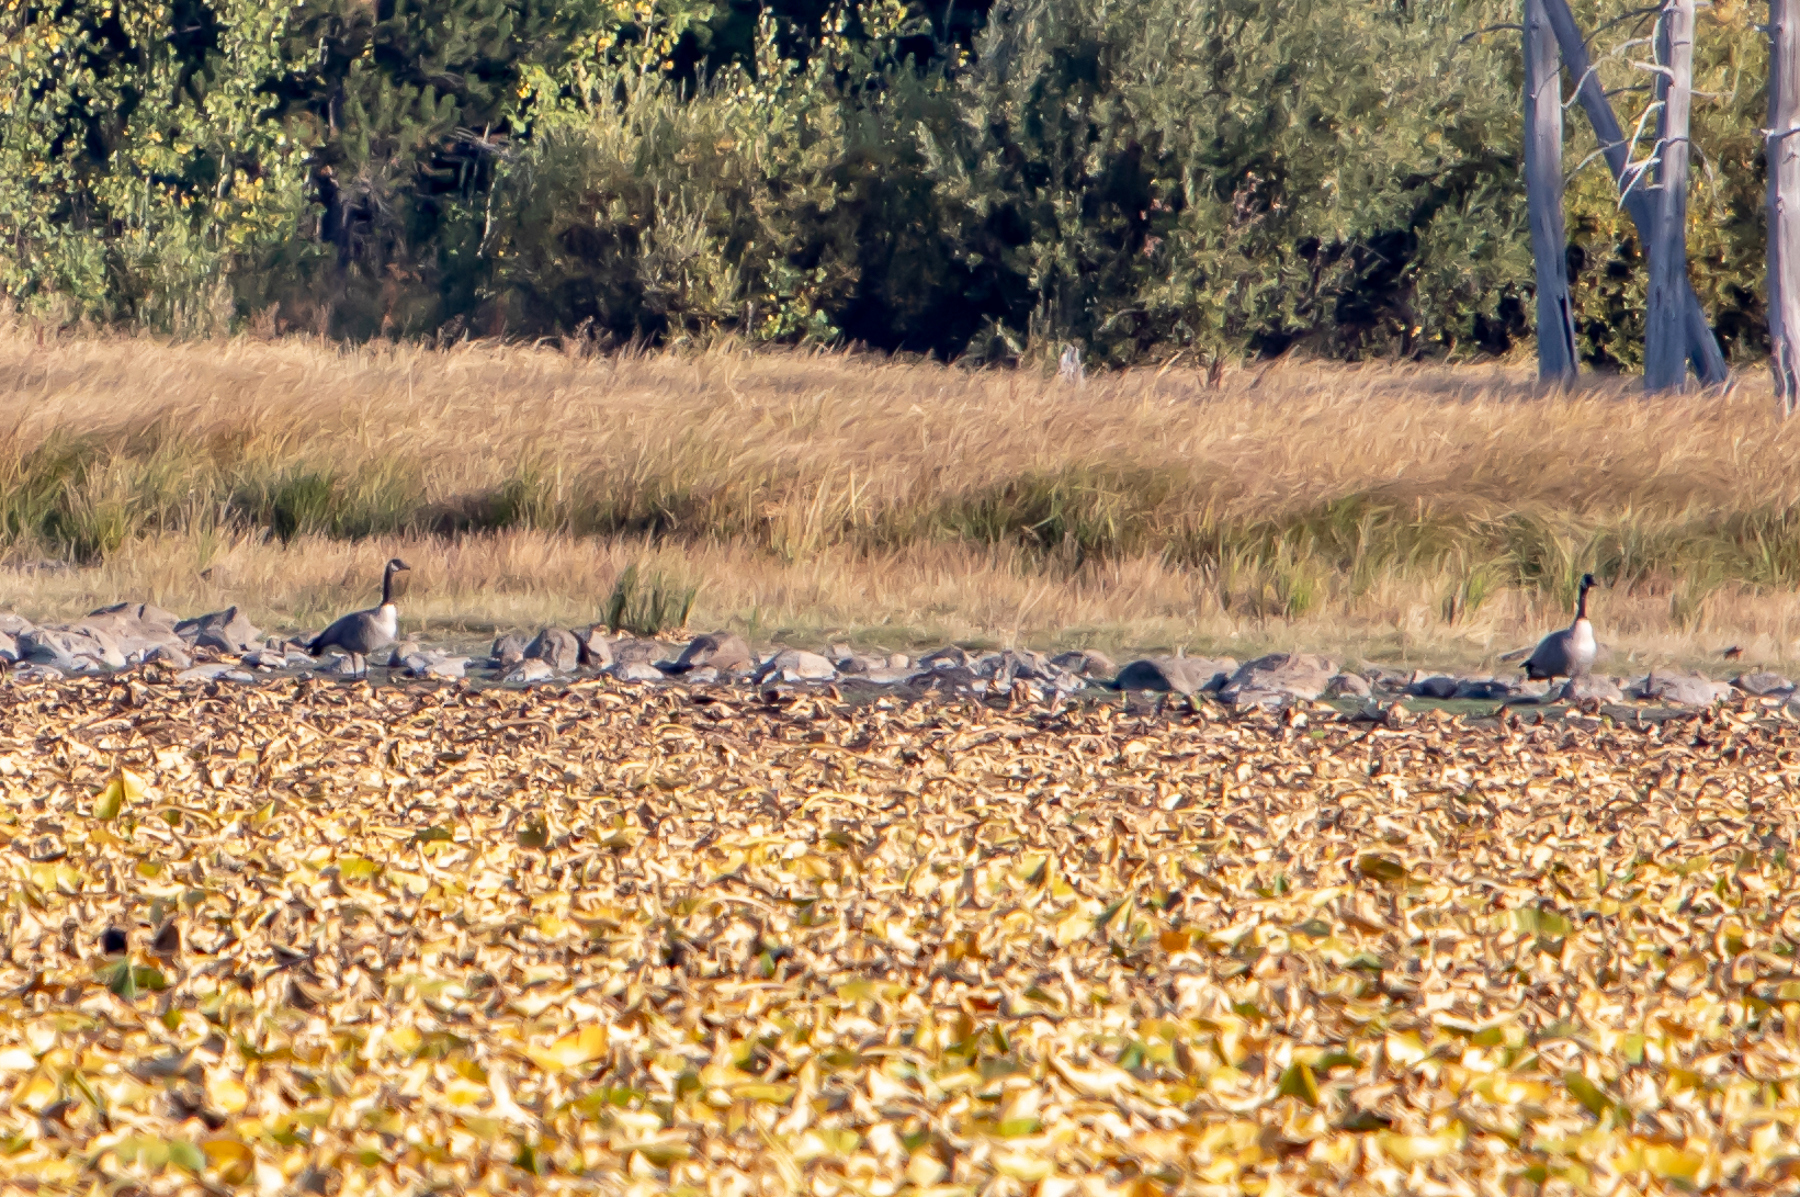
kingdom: Animalia
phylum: Chordata
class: Aves
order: Anseriformes
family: Anatidae
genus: Branta
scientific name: Branta canadensis
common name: Canada goose
